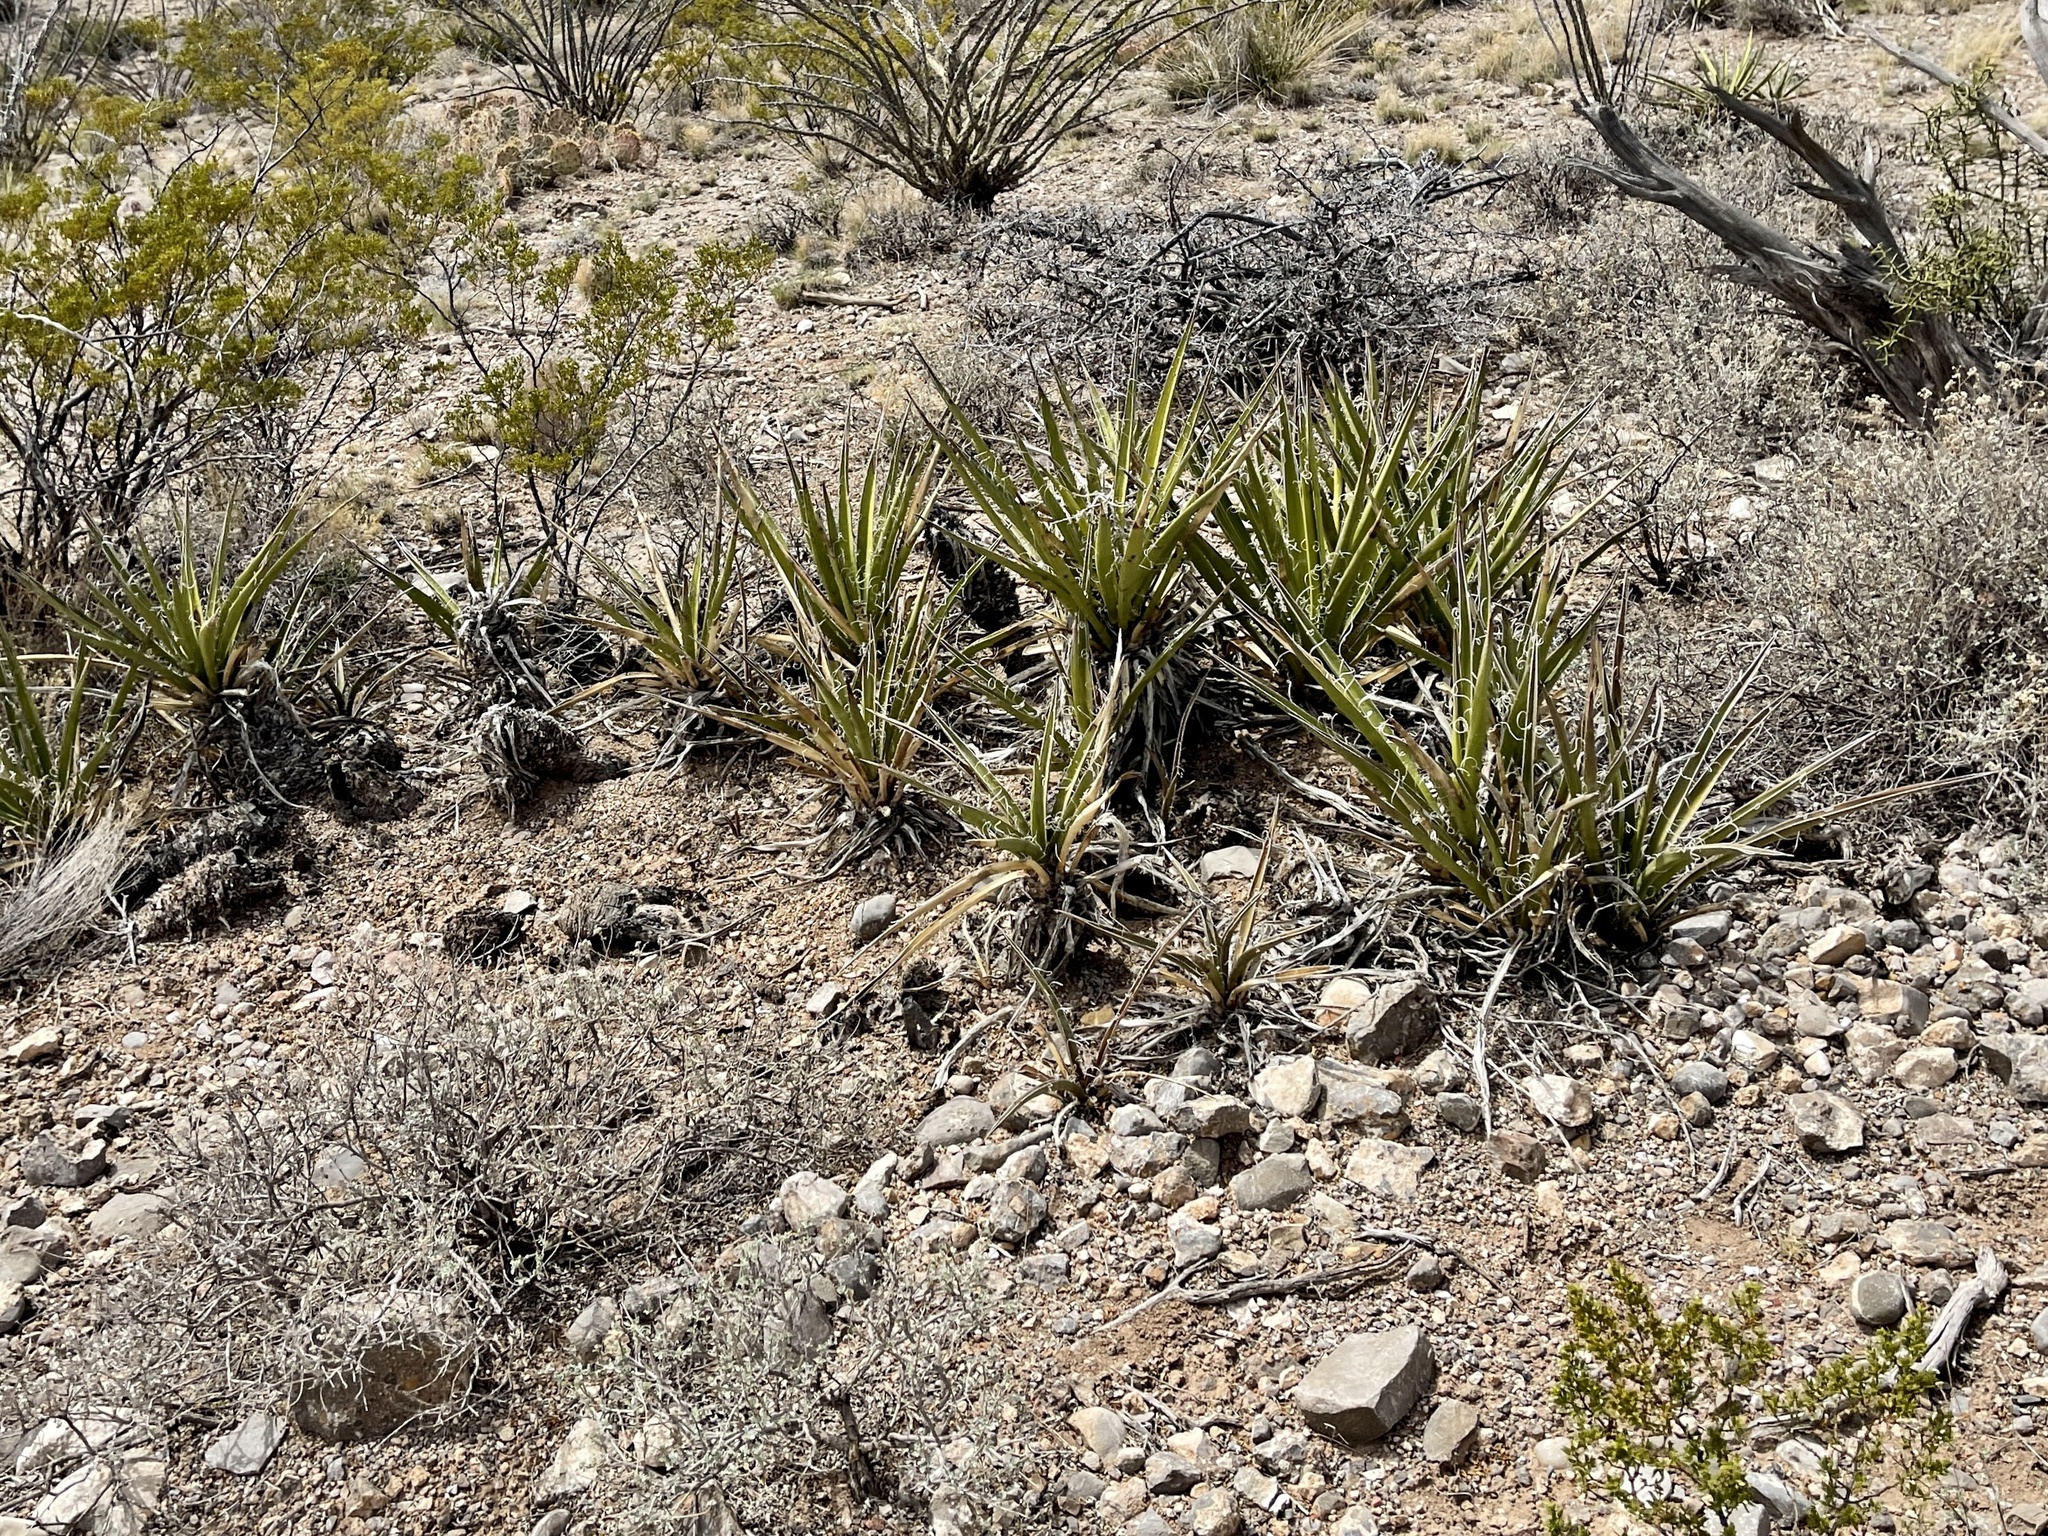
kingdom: Plantae
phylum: Tracheophyta
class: Liliopsida
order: Asparagales
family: Asparagaceae
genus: Yucca
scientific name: Yucca baccata
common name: Banana yucca
